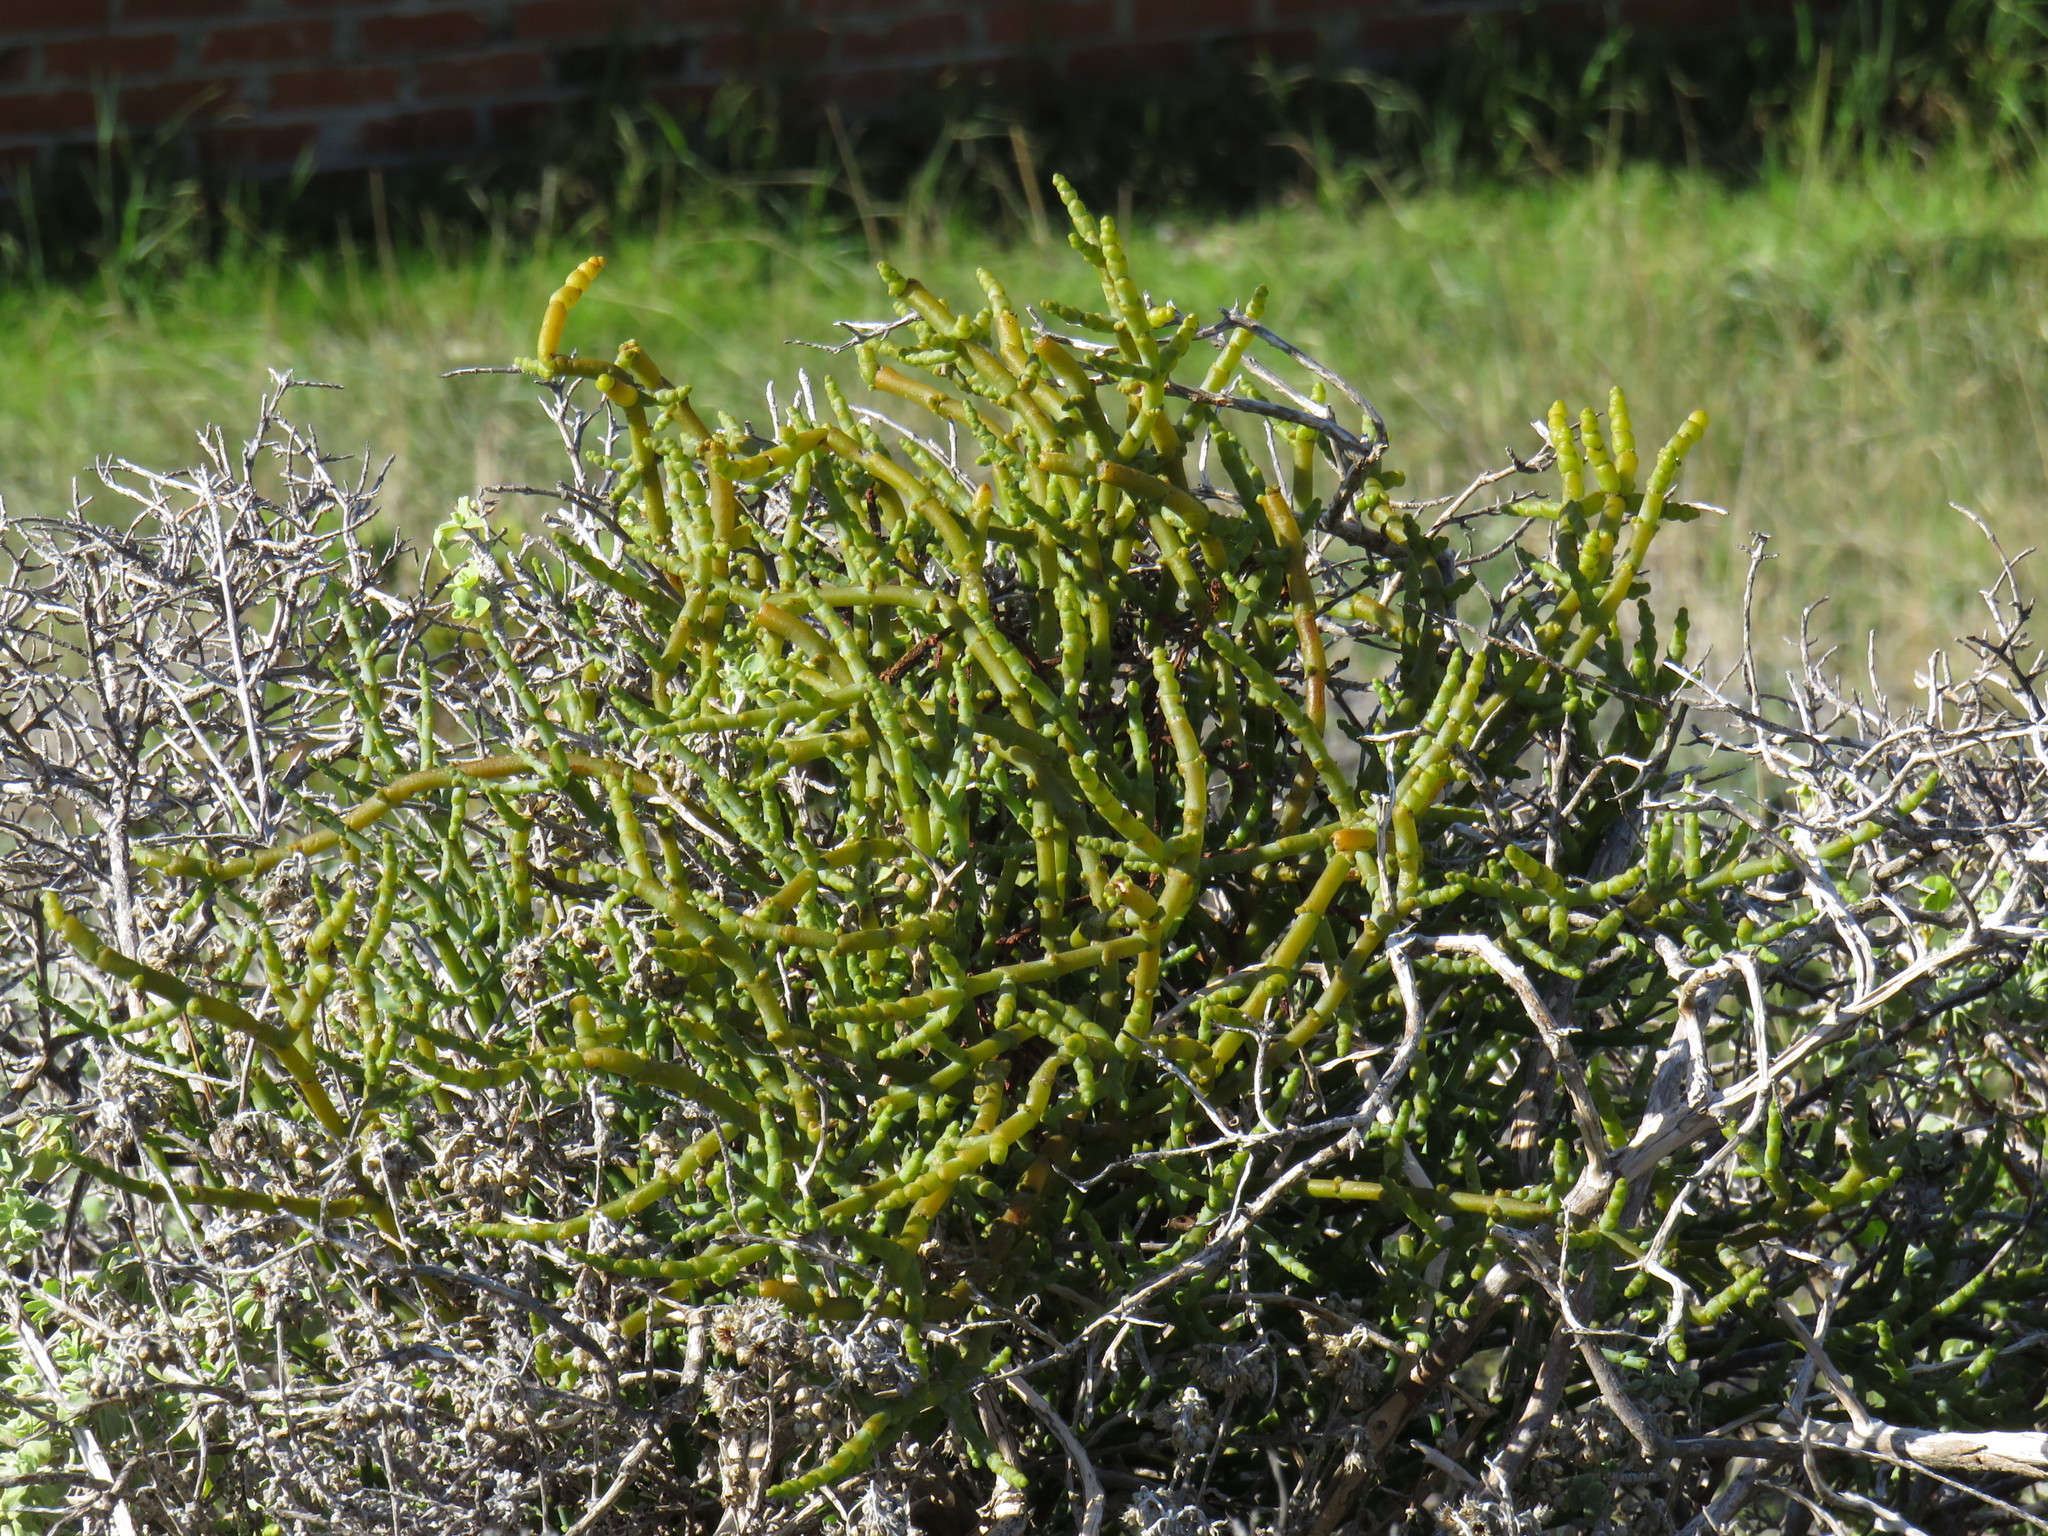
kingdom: Plantae
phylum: Tracheophyta
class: Magnoliopsida
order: Santalales
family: Viscaceae
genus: Viscum
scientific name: Viscum capense
